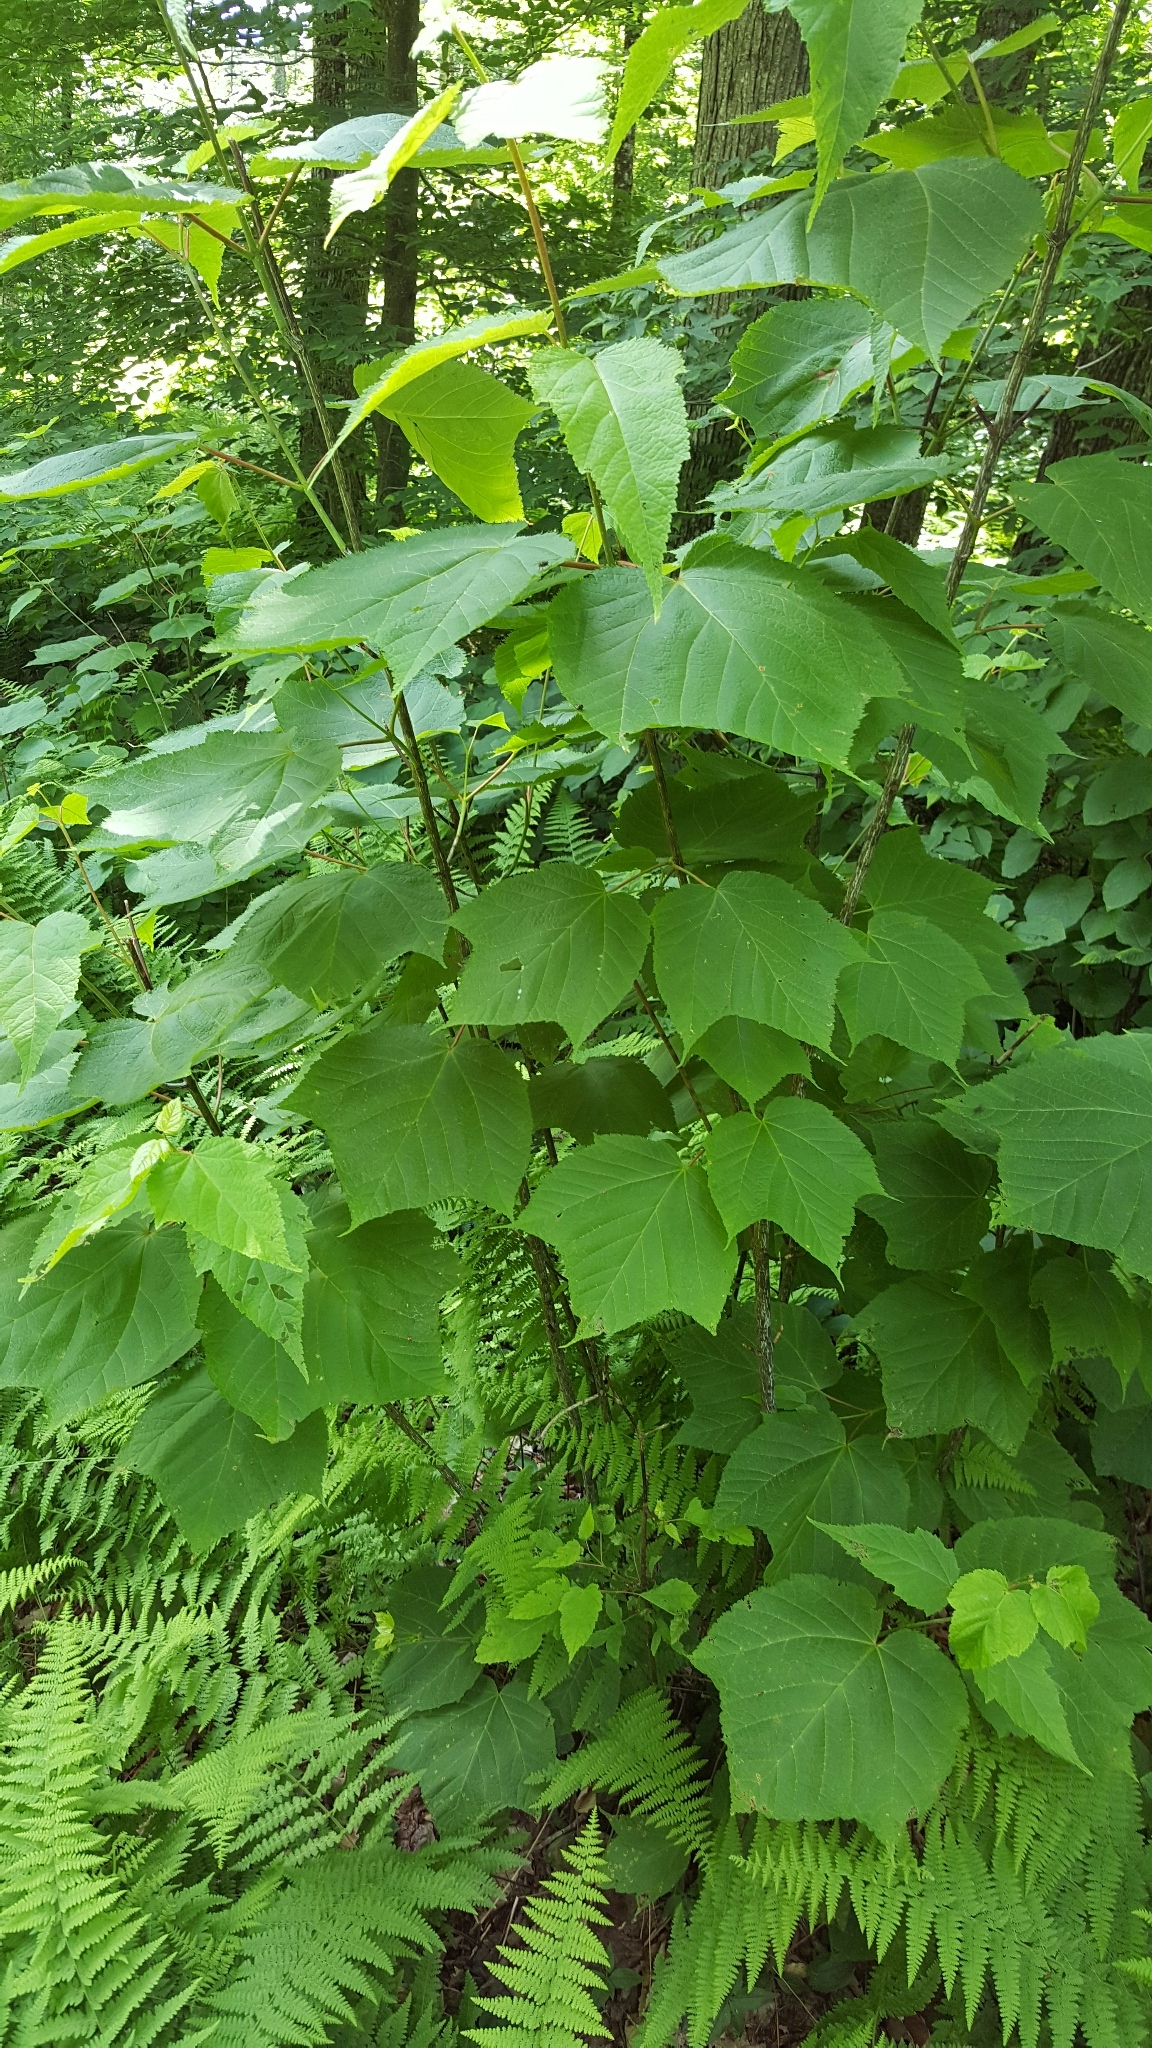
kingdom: Plantae
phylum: Tracheophyta
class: Magnoliopsida
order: Sapindales
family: Sapindaceae
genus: Acer
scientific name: Acer pensylvanicum
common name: Moosewood
